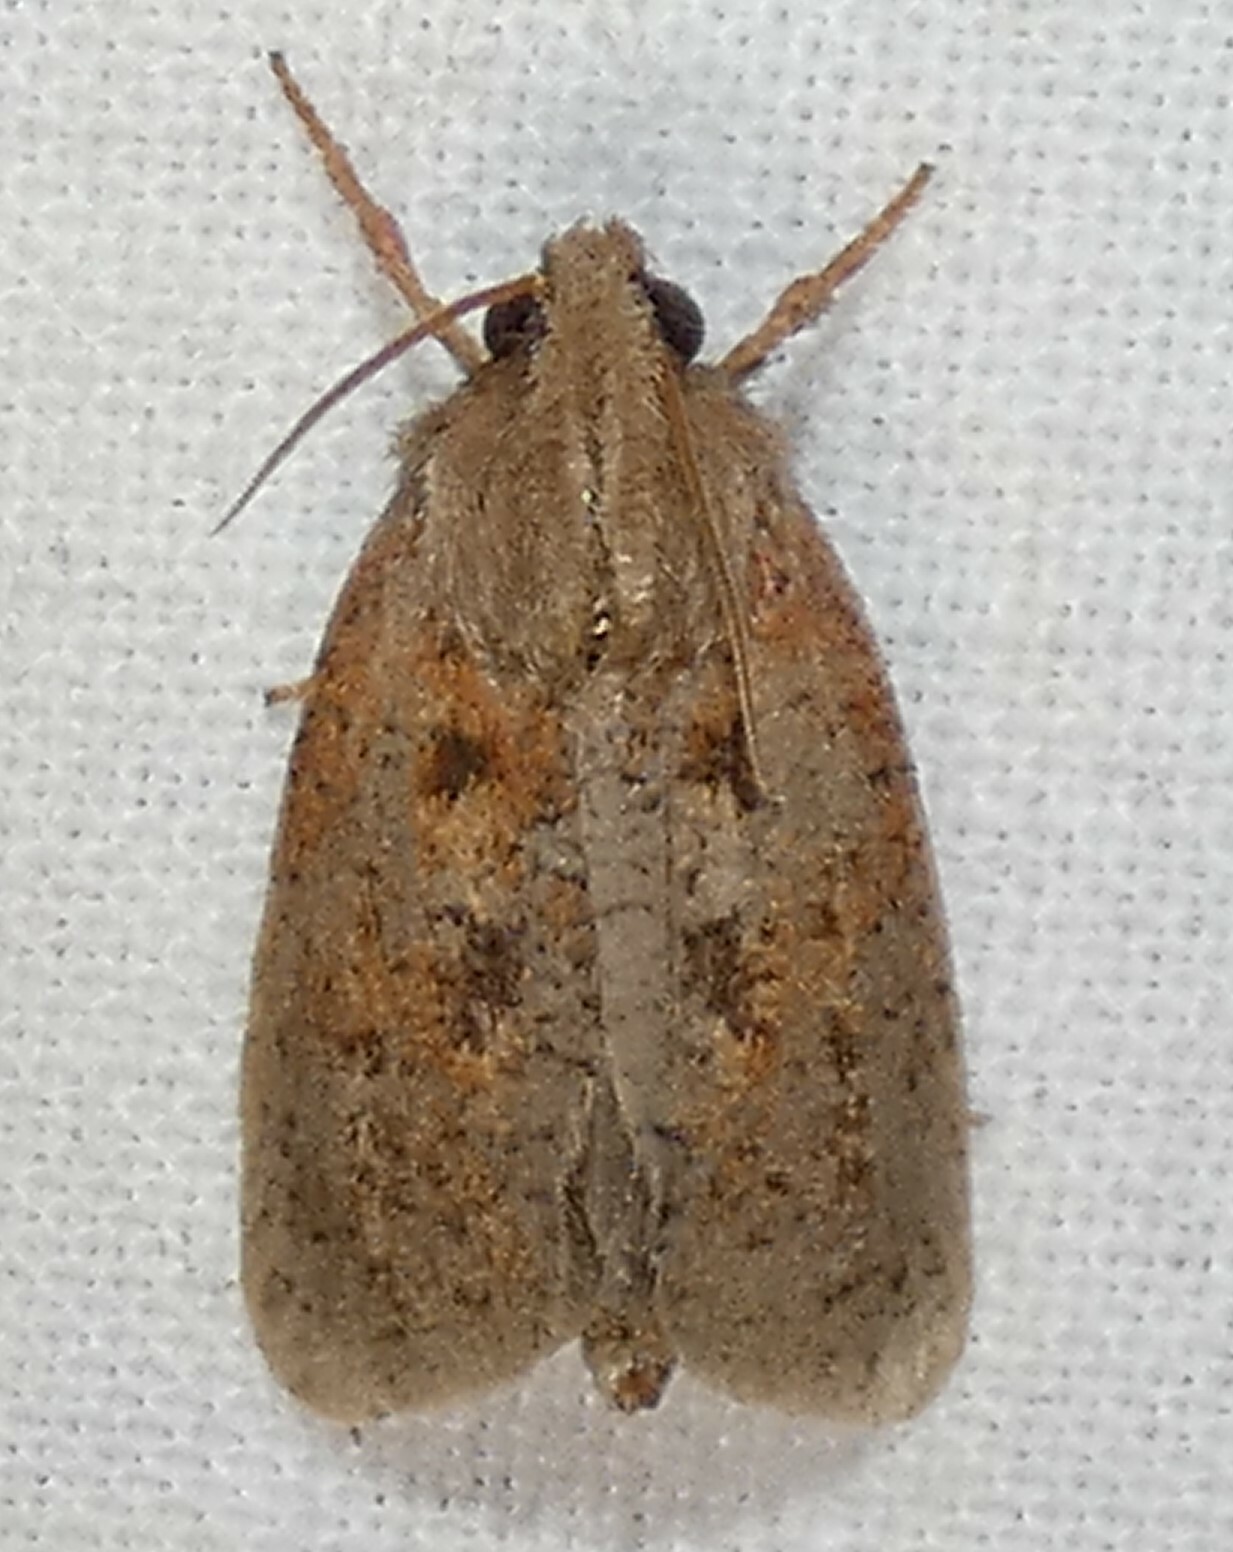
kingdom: Animalia
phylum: Arthropoda
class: Insecta
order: Lepidoptera
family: Tineidae
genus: Acrolophus
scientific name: Acrolophus plumifrontella
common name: Eastern grass tubeworm moth
